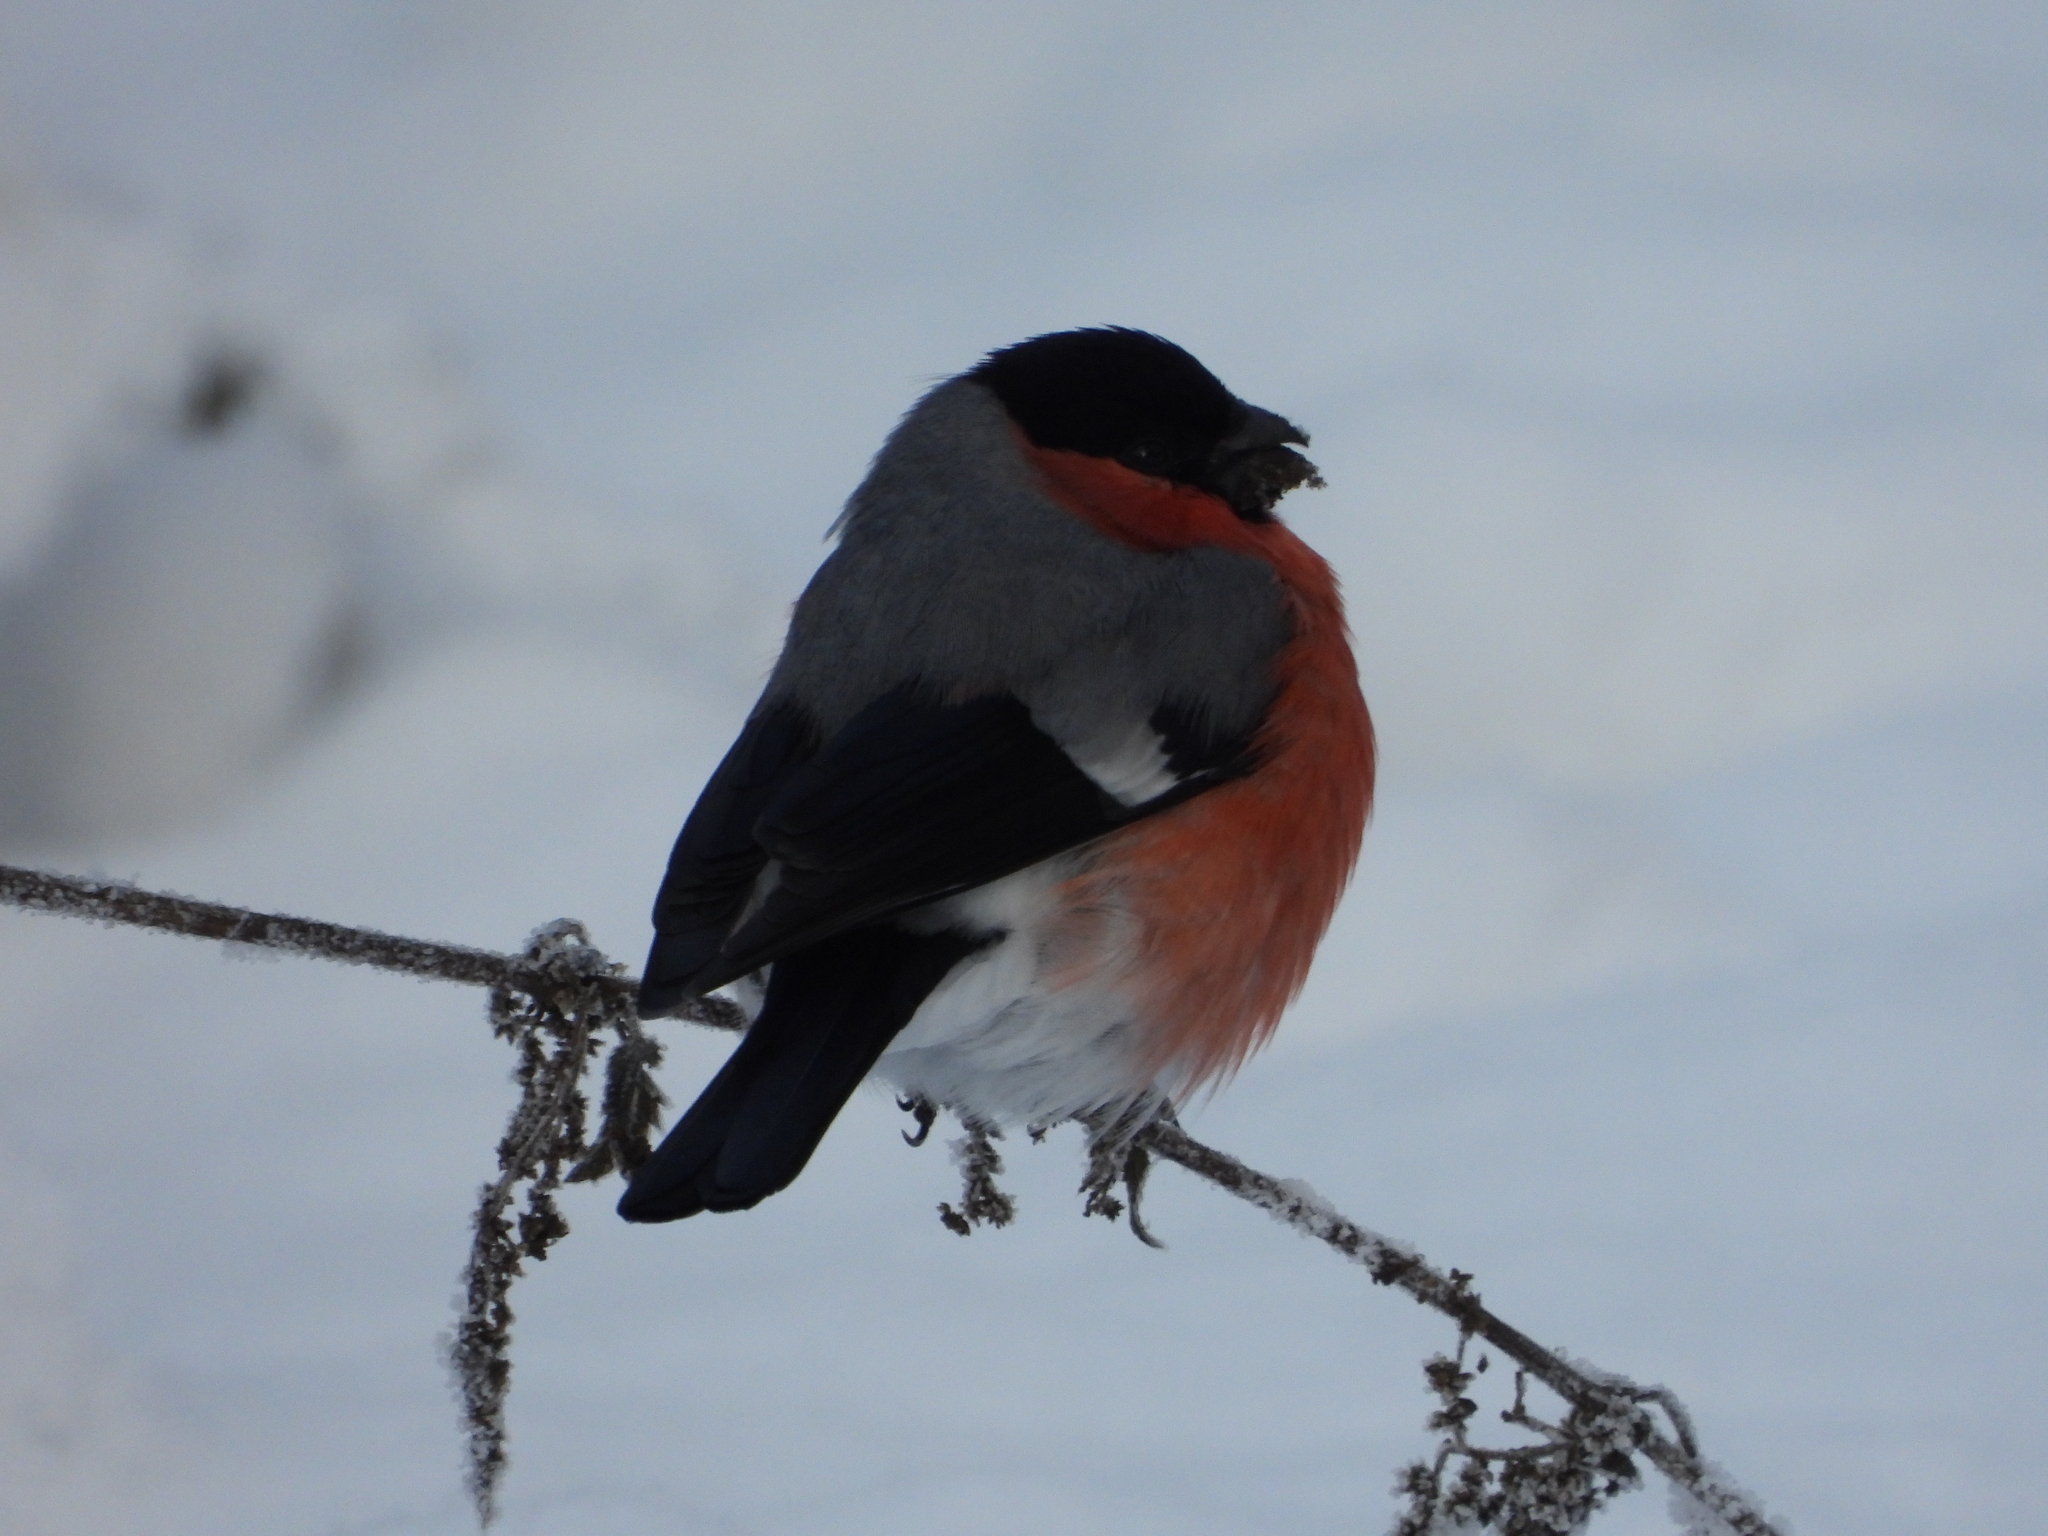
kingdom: Animalia
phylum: Chordata
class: Aves
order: Passeriformes
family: Fringillidae
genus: Pyrrhula
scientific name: Pyrrhula pyrrhula
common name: Eurasian bullfinch
